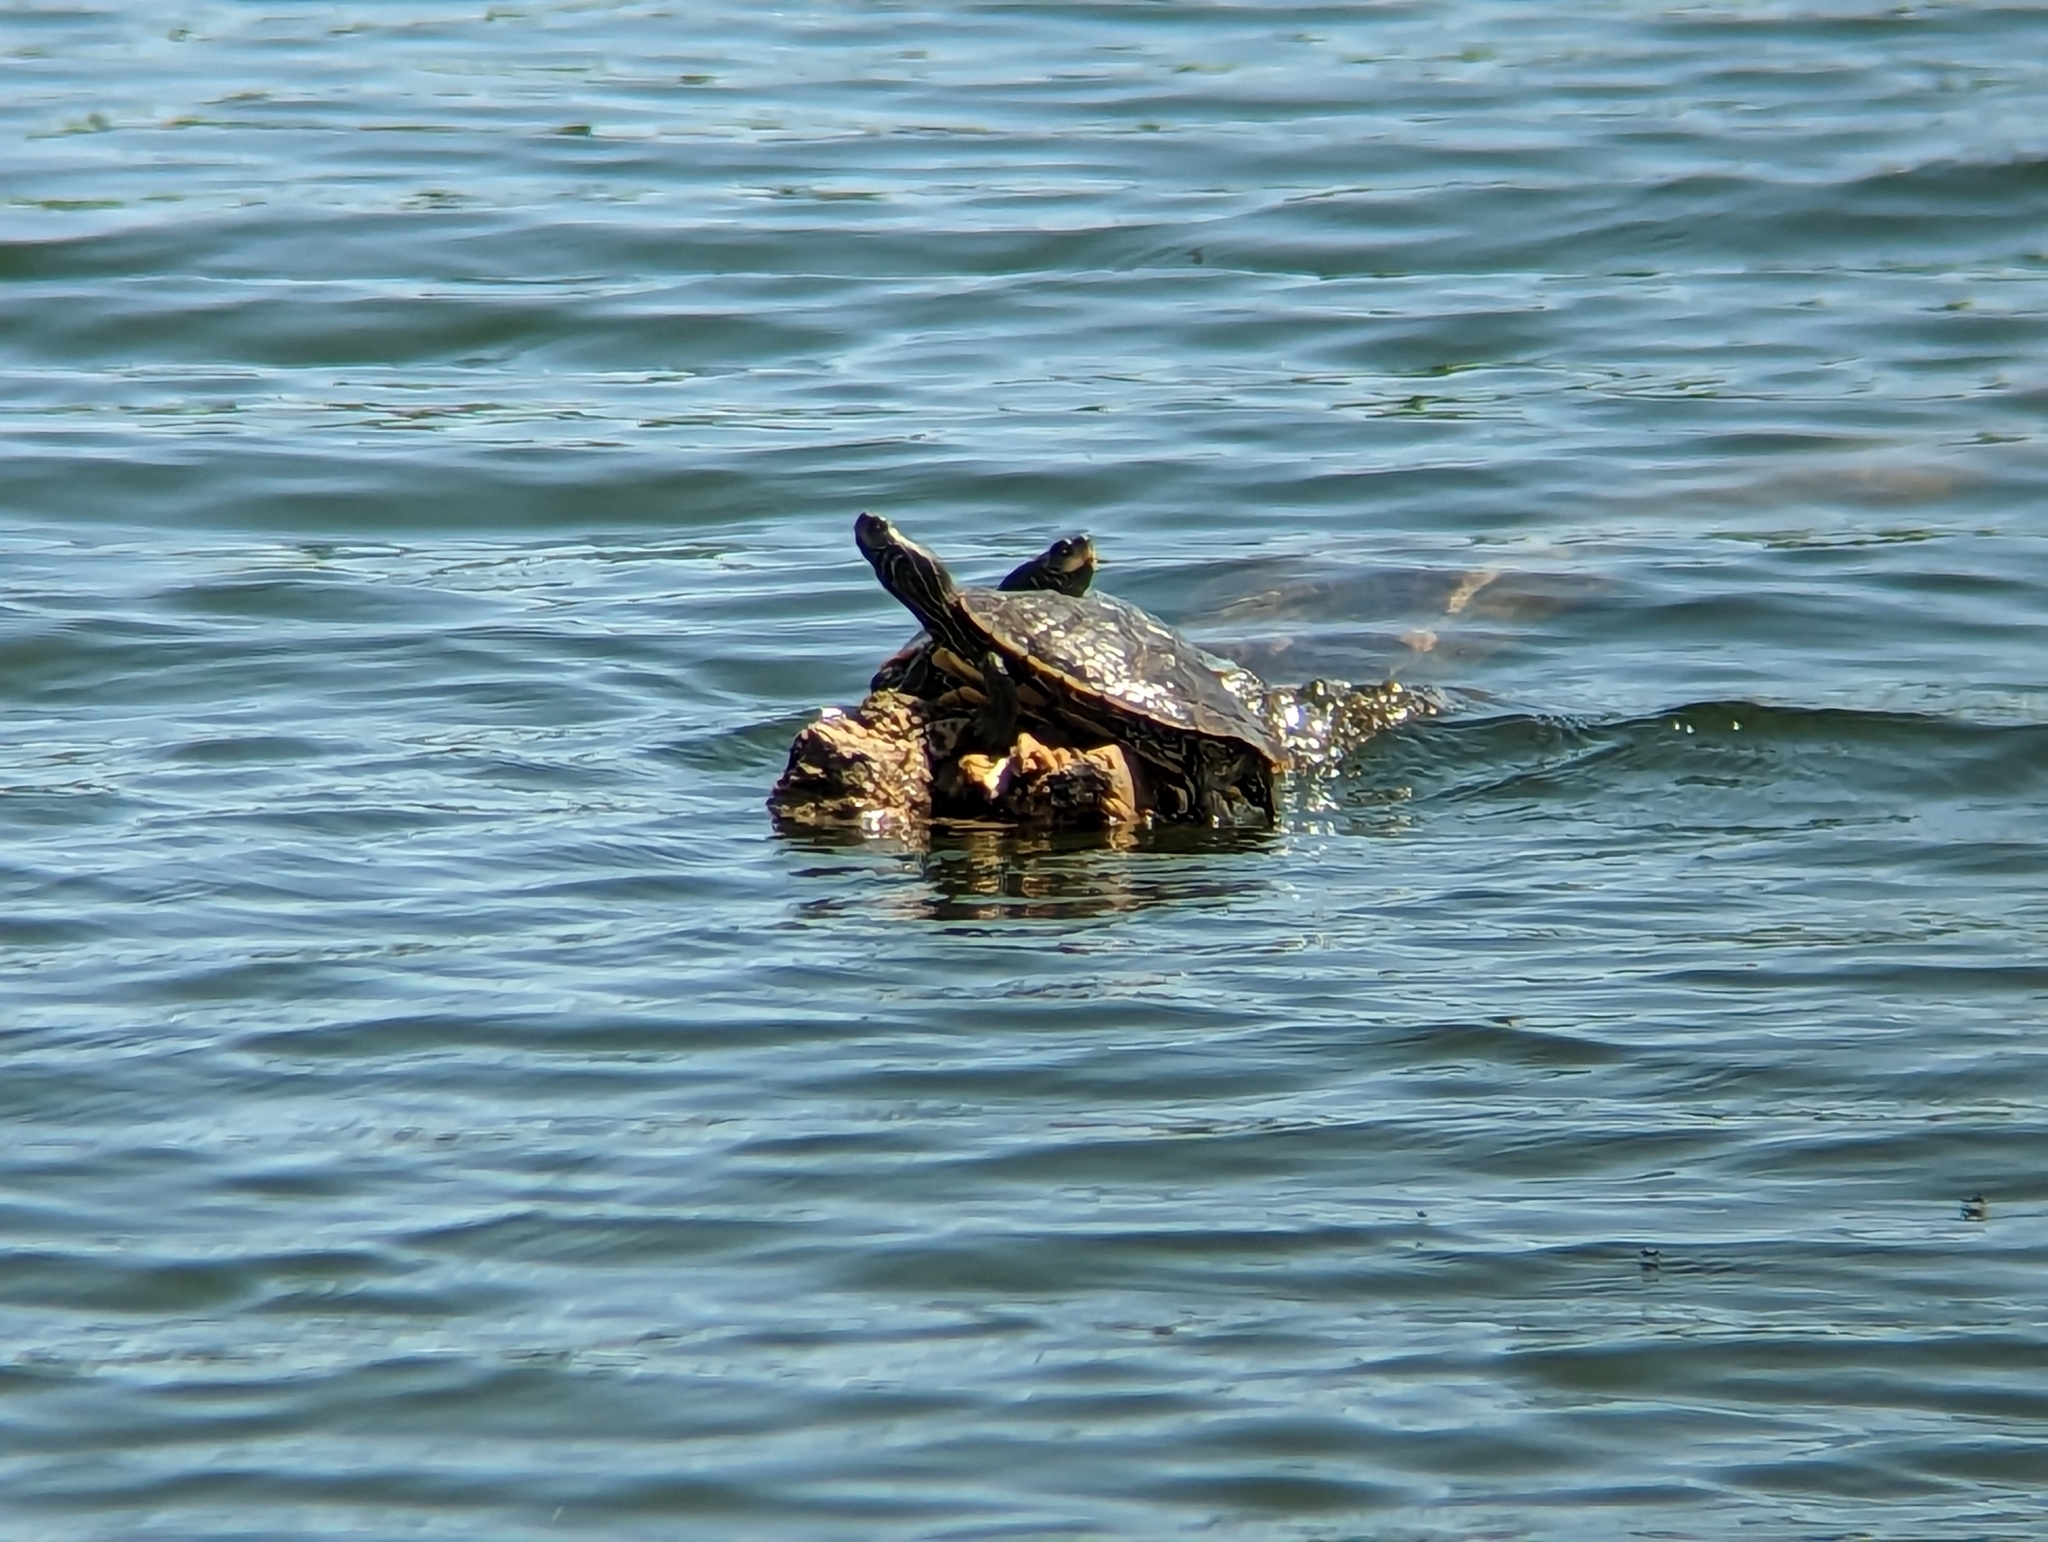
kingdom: Animalia
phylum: Chordata
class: Testudines
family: Emydidae
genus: Graptemys
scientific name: Graptemys geographica
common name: Common map turtle
